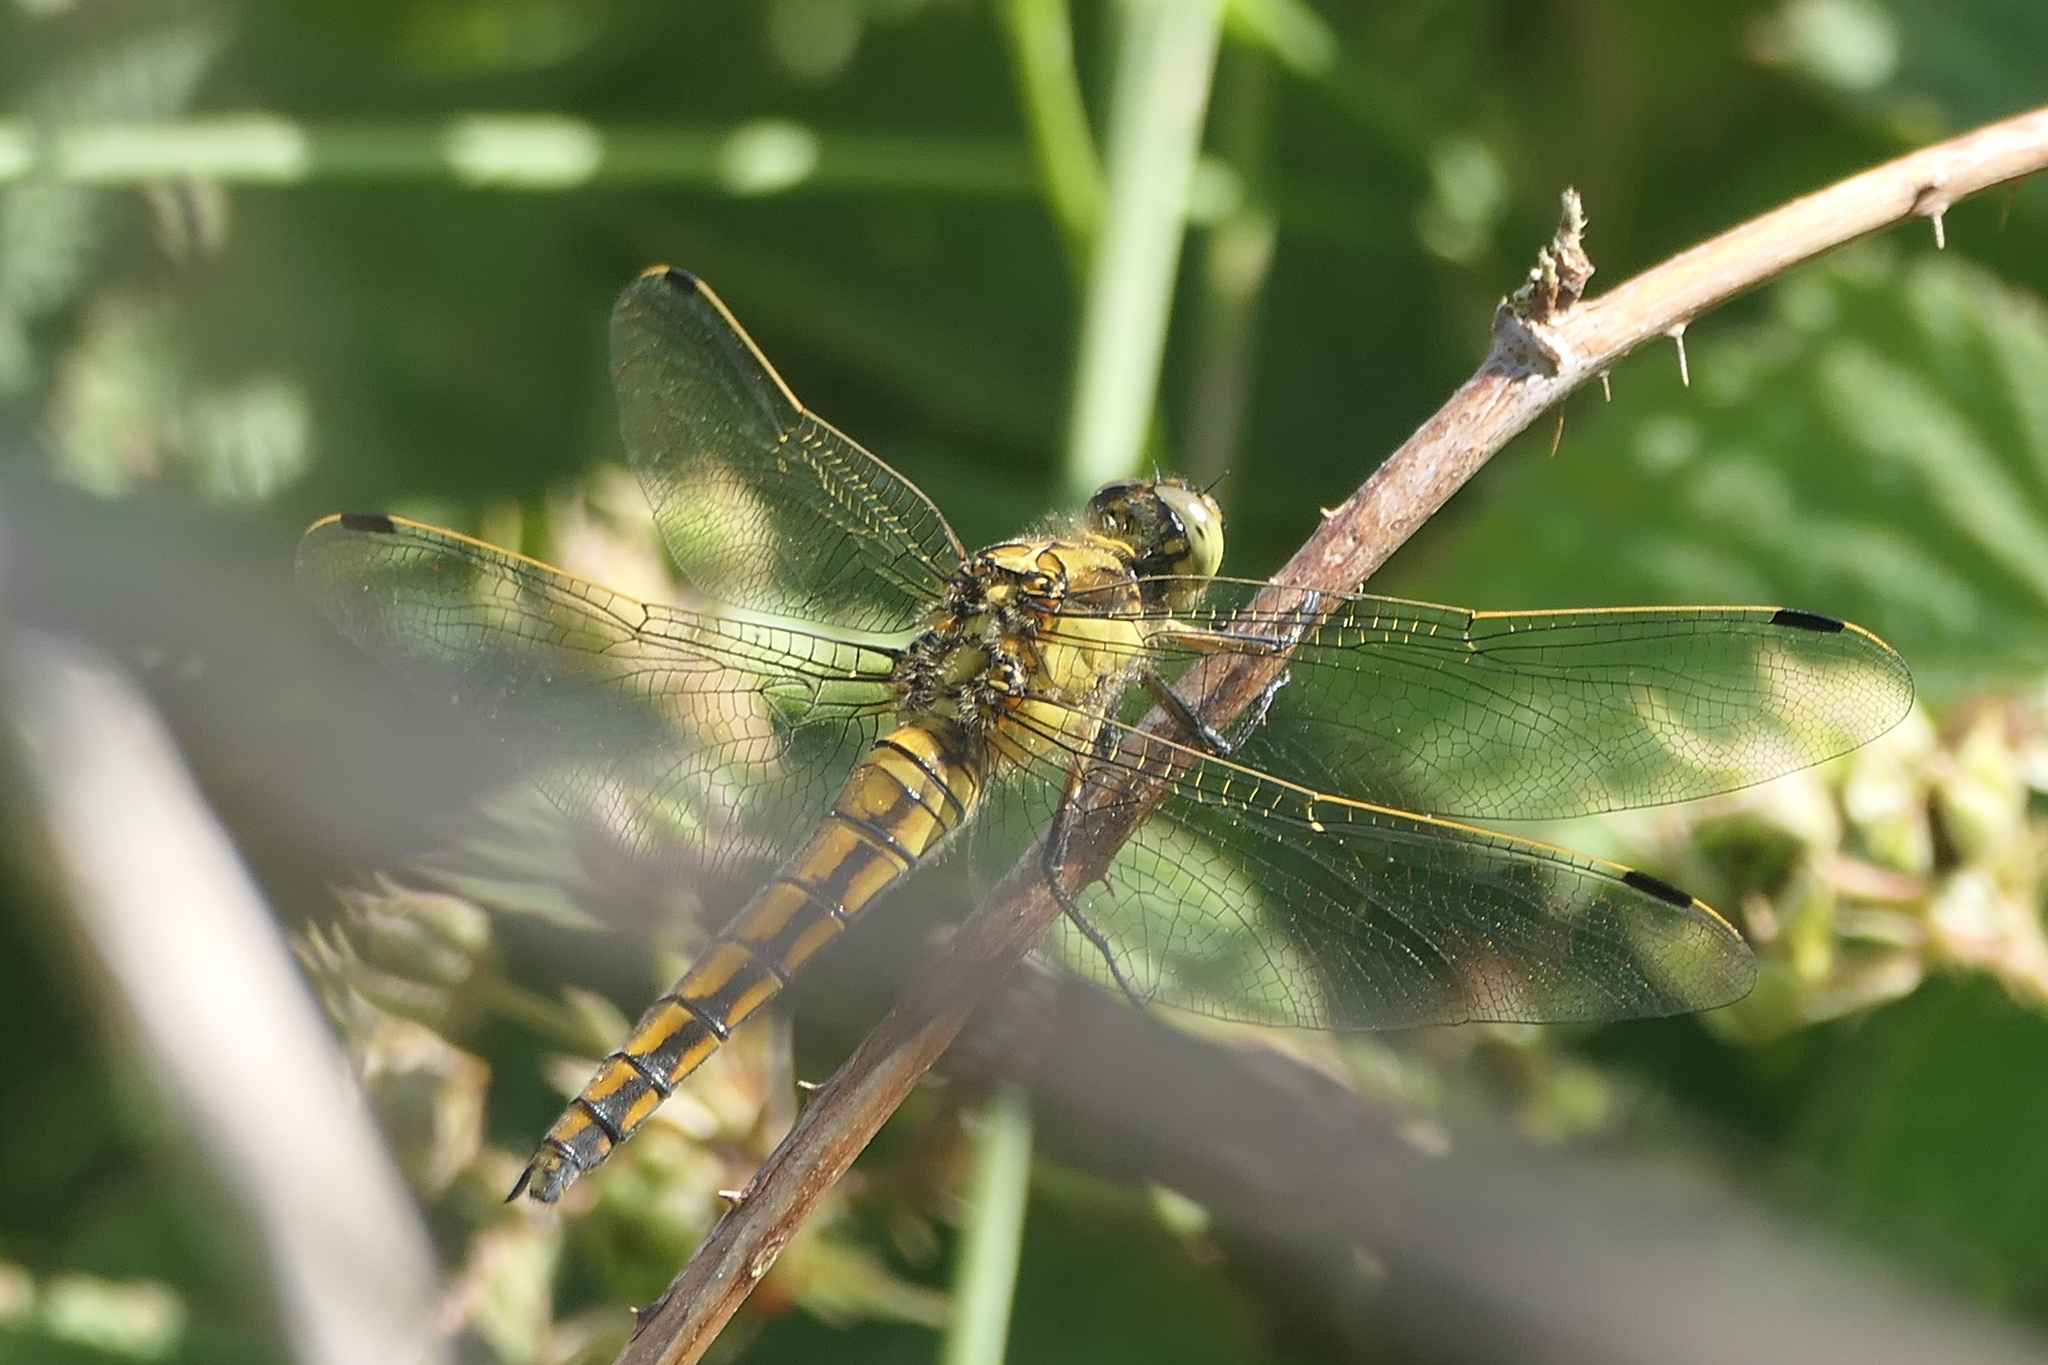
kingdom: Animalia
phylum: Arthropoda
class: Insecta
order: Odonata
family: Libellulidae
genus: Orthetrum
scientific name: Orthetrum cancellatum
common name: Black-tailed skimmer
